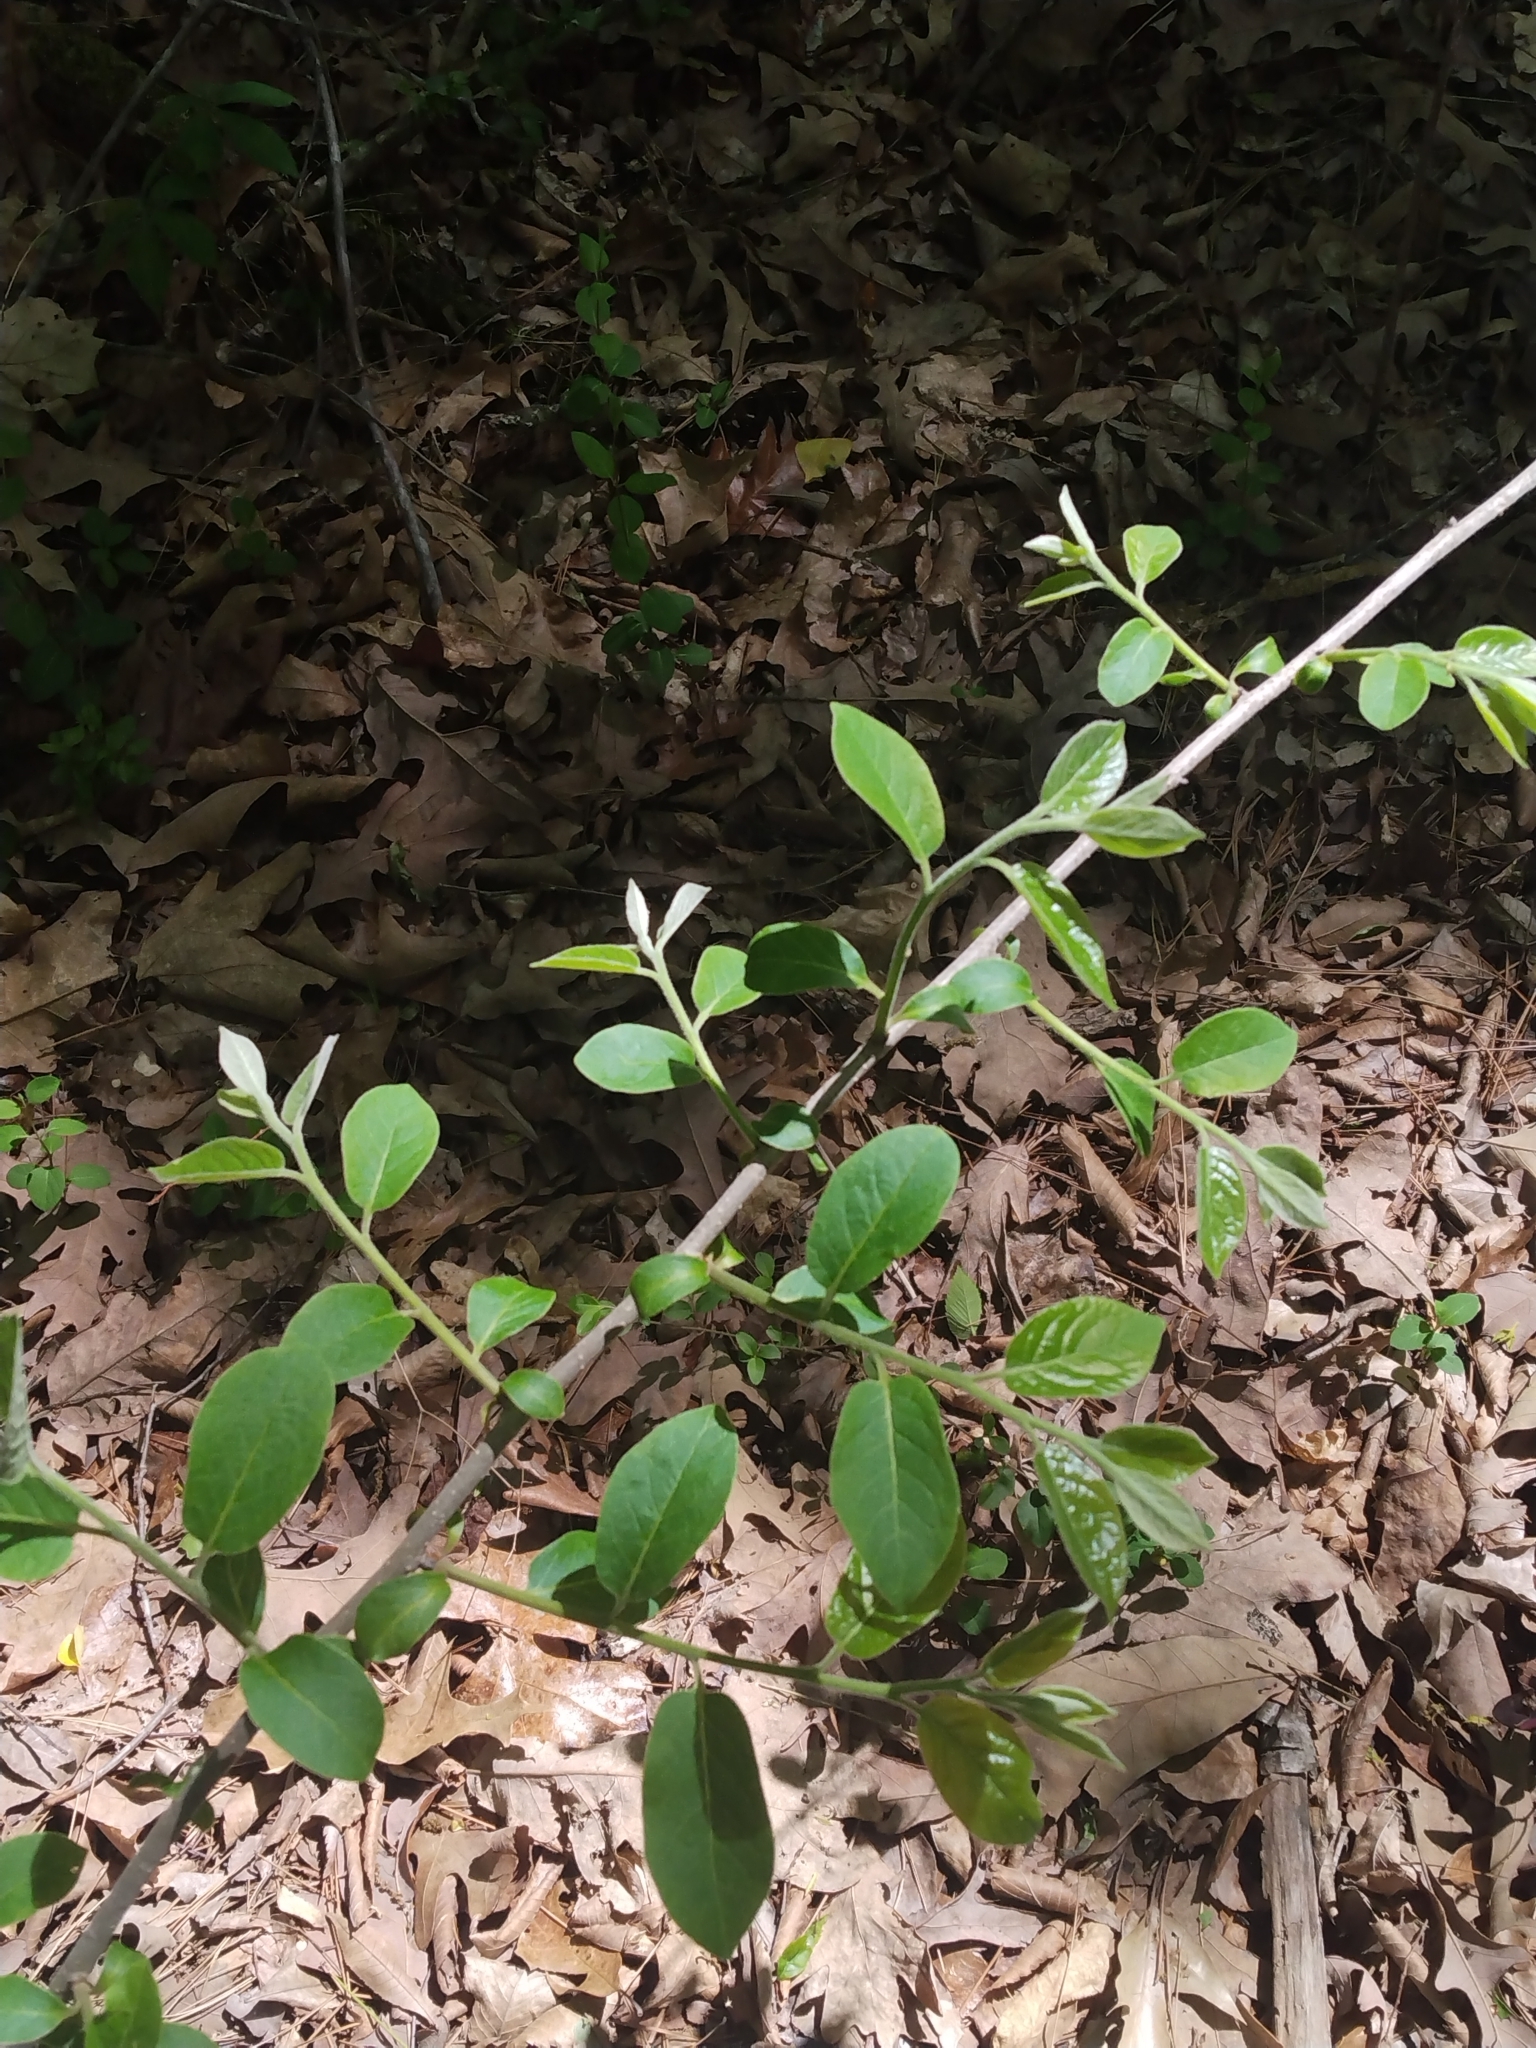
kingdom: Plantae
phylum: Tracheophyta
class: Magnoliopsida
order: Ericales
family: Ebenaceae
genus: Diospyros
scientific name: Diospyros virginiana
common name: Persimmon
